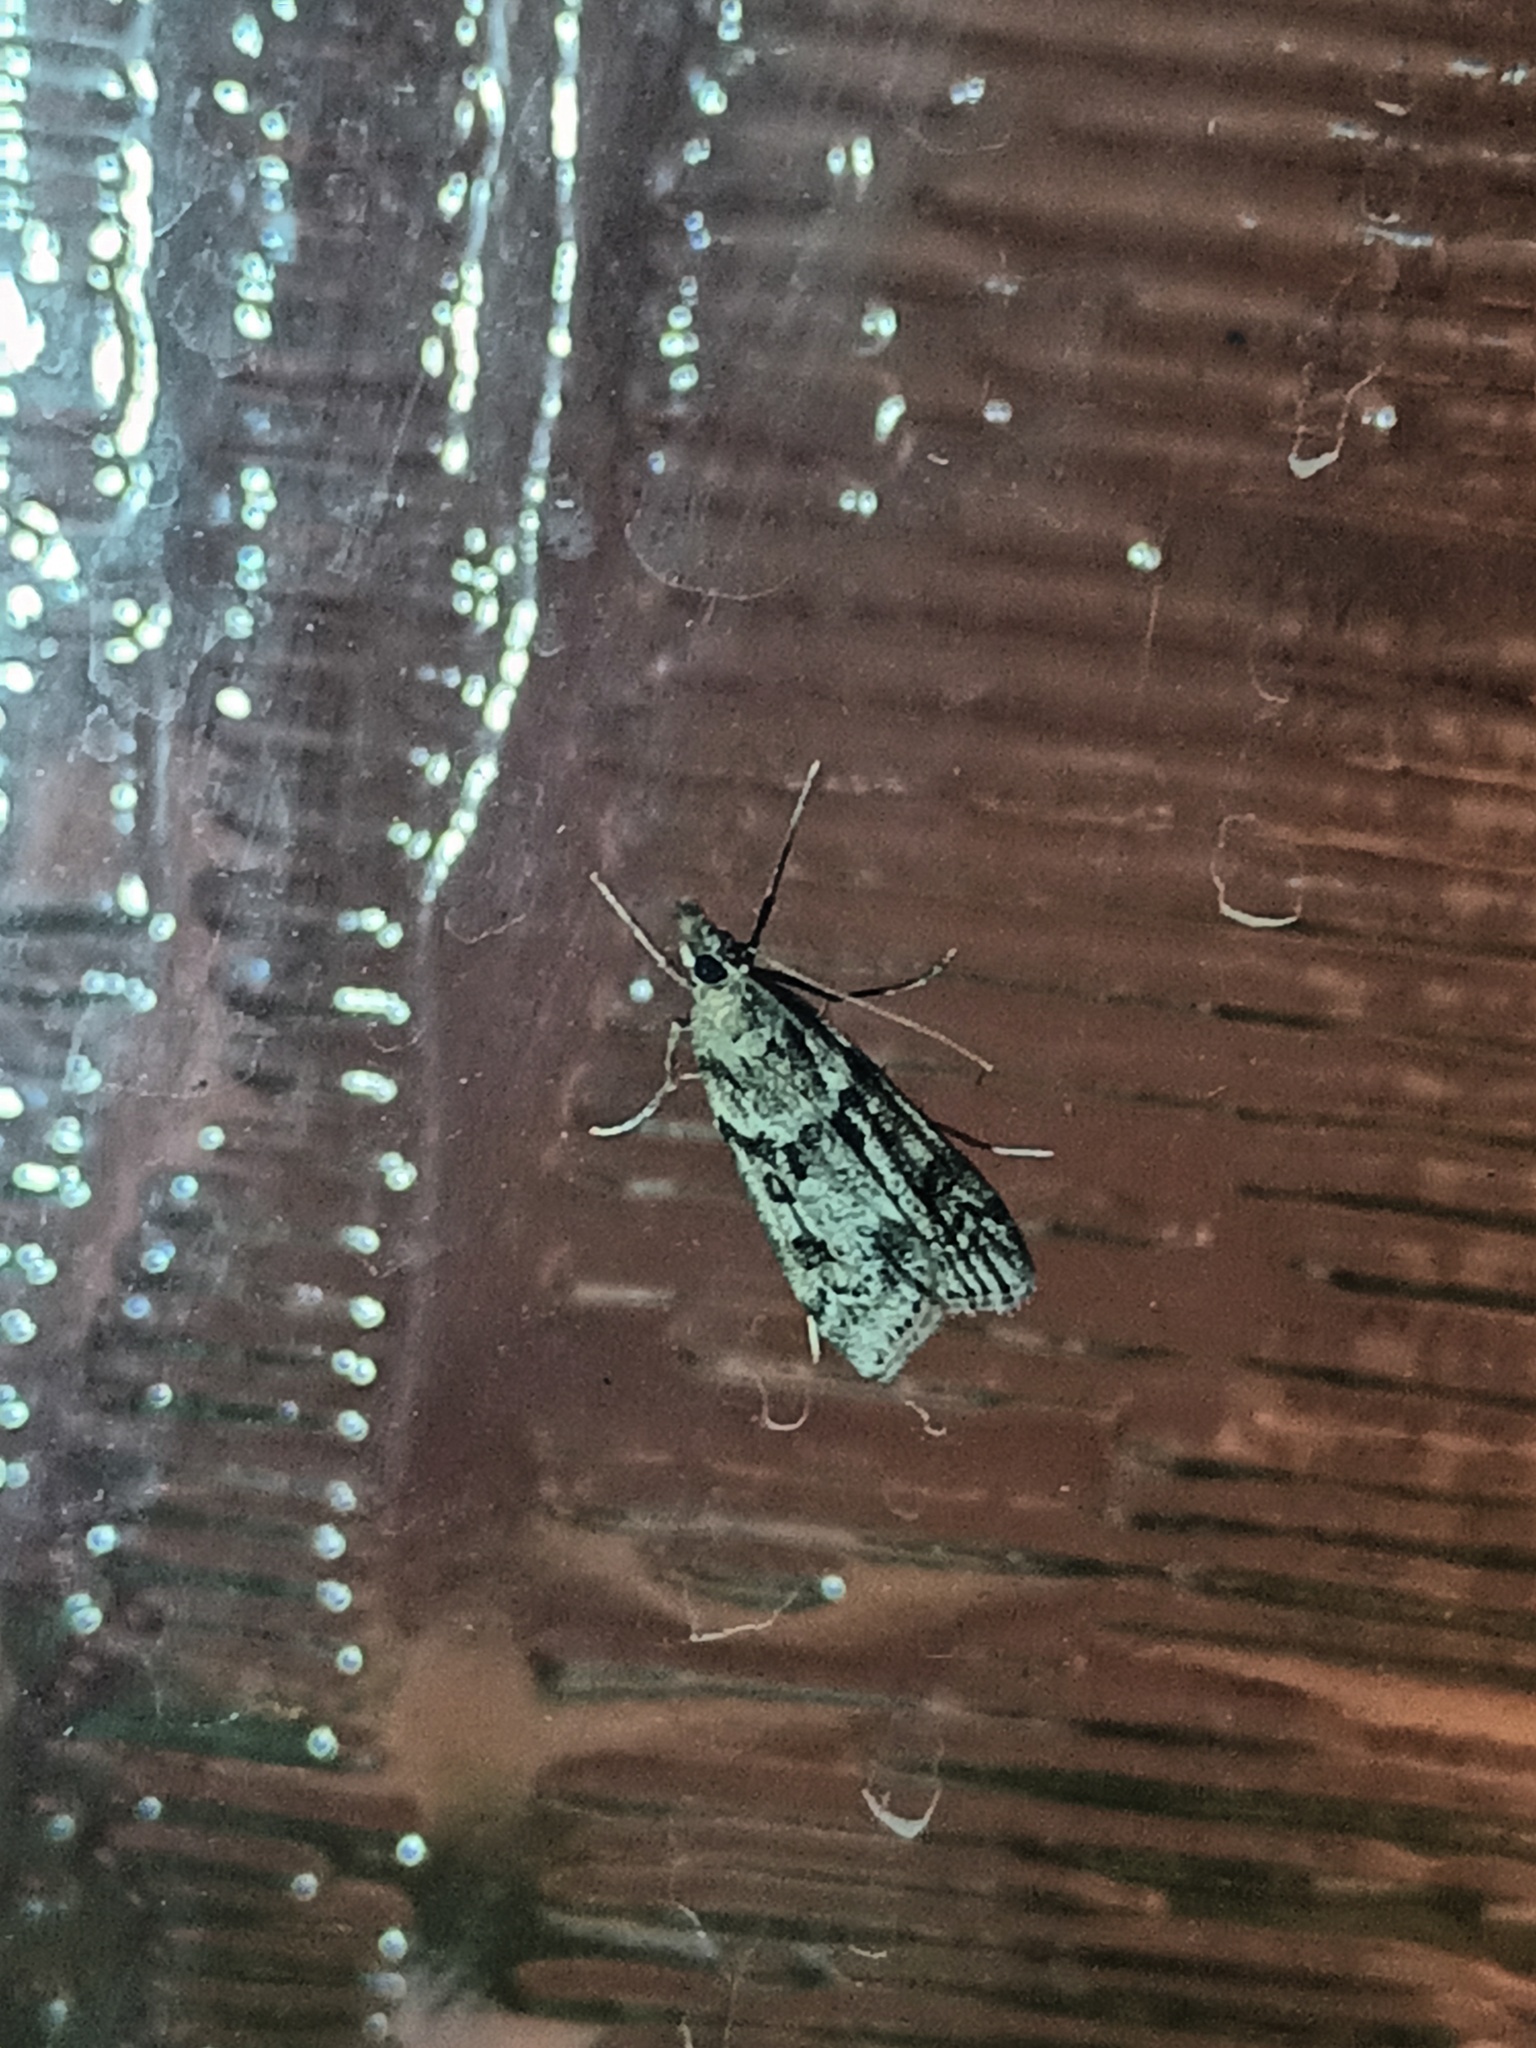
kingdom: Animalia
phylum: Arthropoda
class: Insecta
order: Lepidoptera
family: Crambidae
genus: Eudonia
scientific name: Eudonia angustea
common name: Narrow-winged grey
